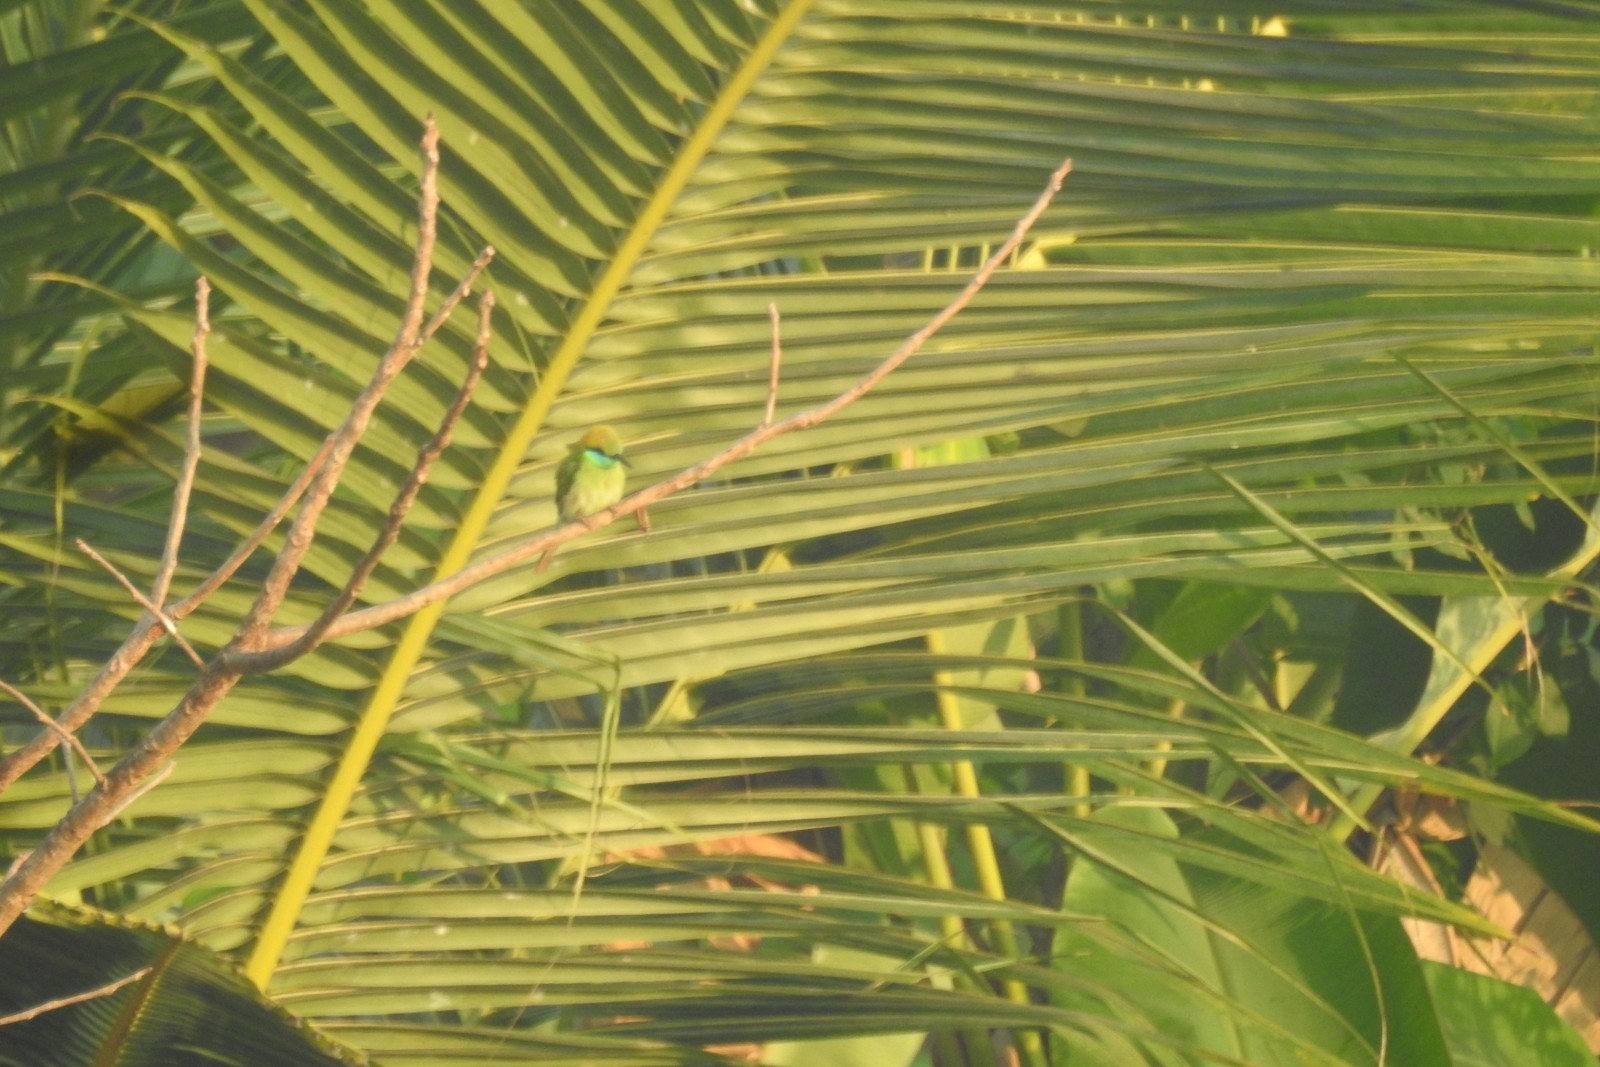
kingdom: Animalia
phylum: Chordata
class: Aves
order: Coraciiformes
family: Meropidae
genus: Merops
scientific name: Merops orientalis
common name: Green bee-eater
